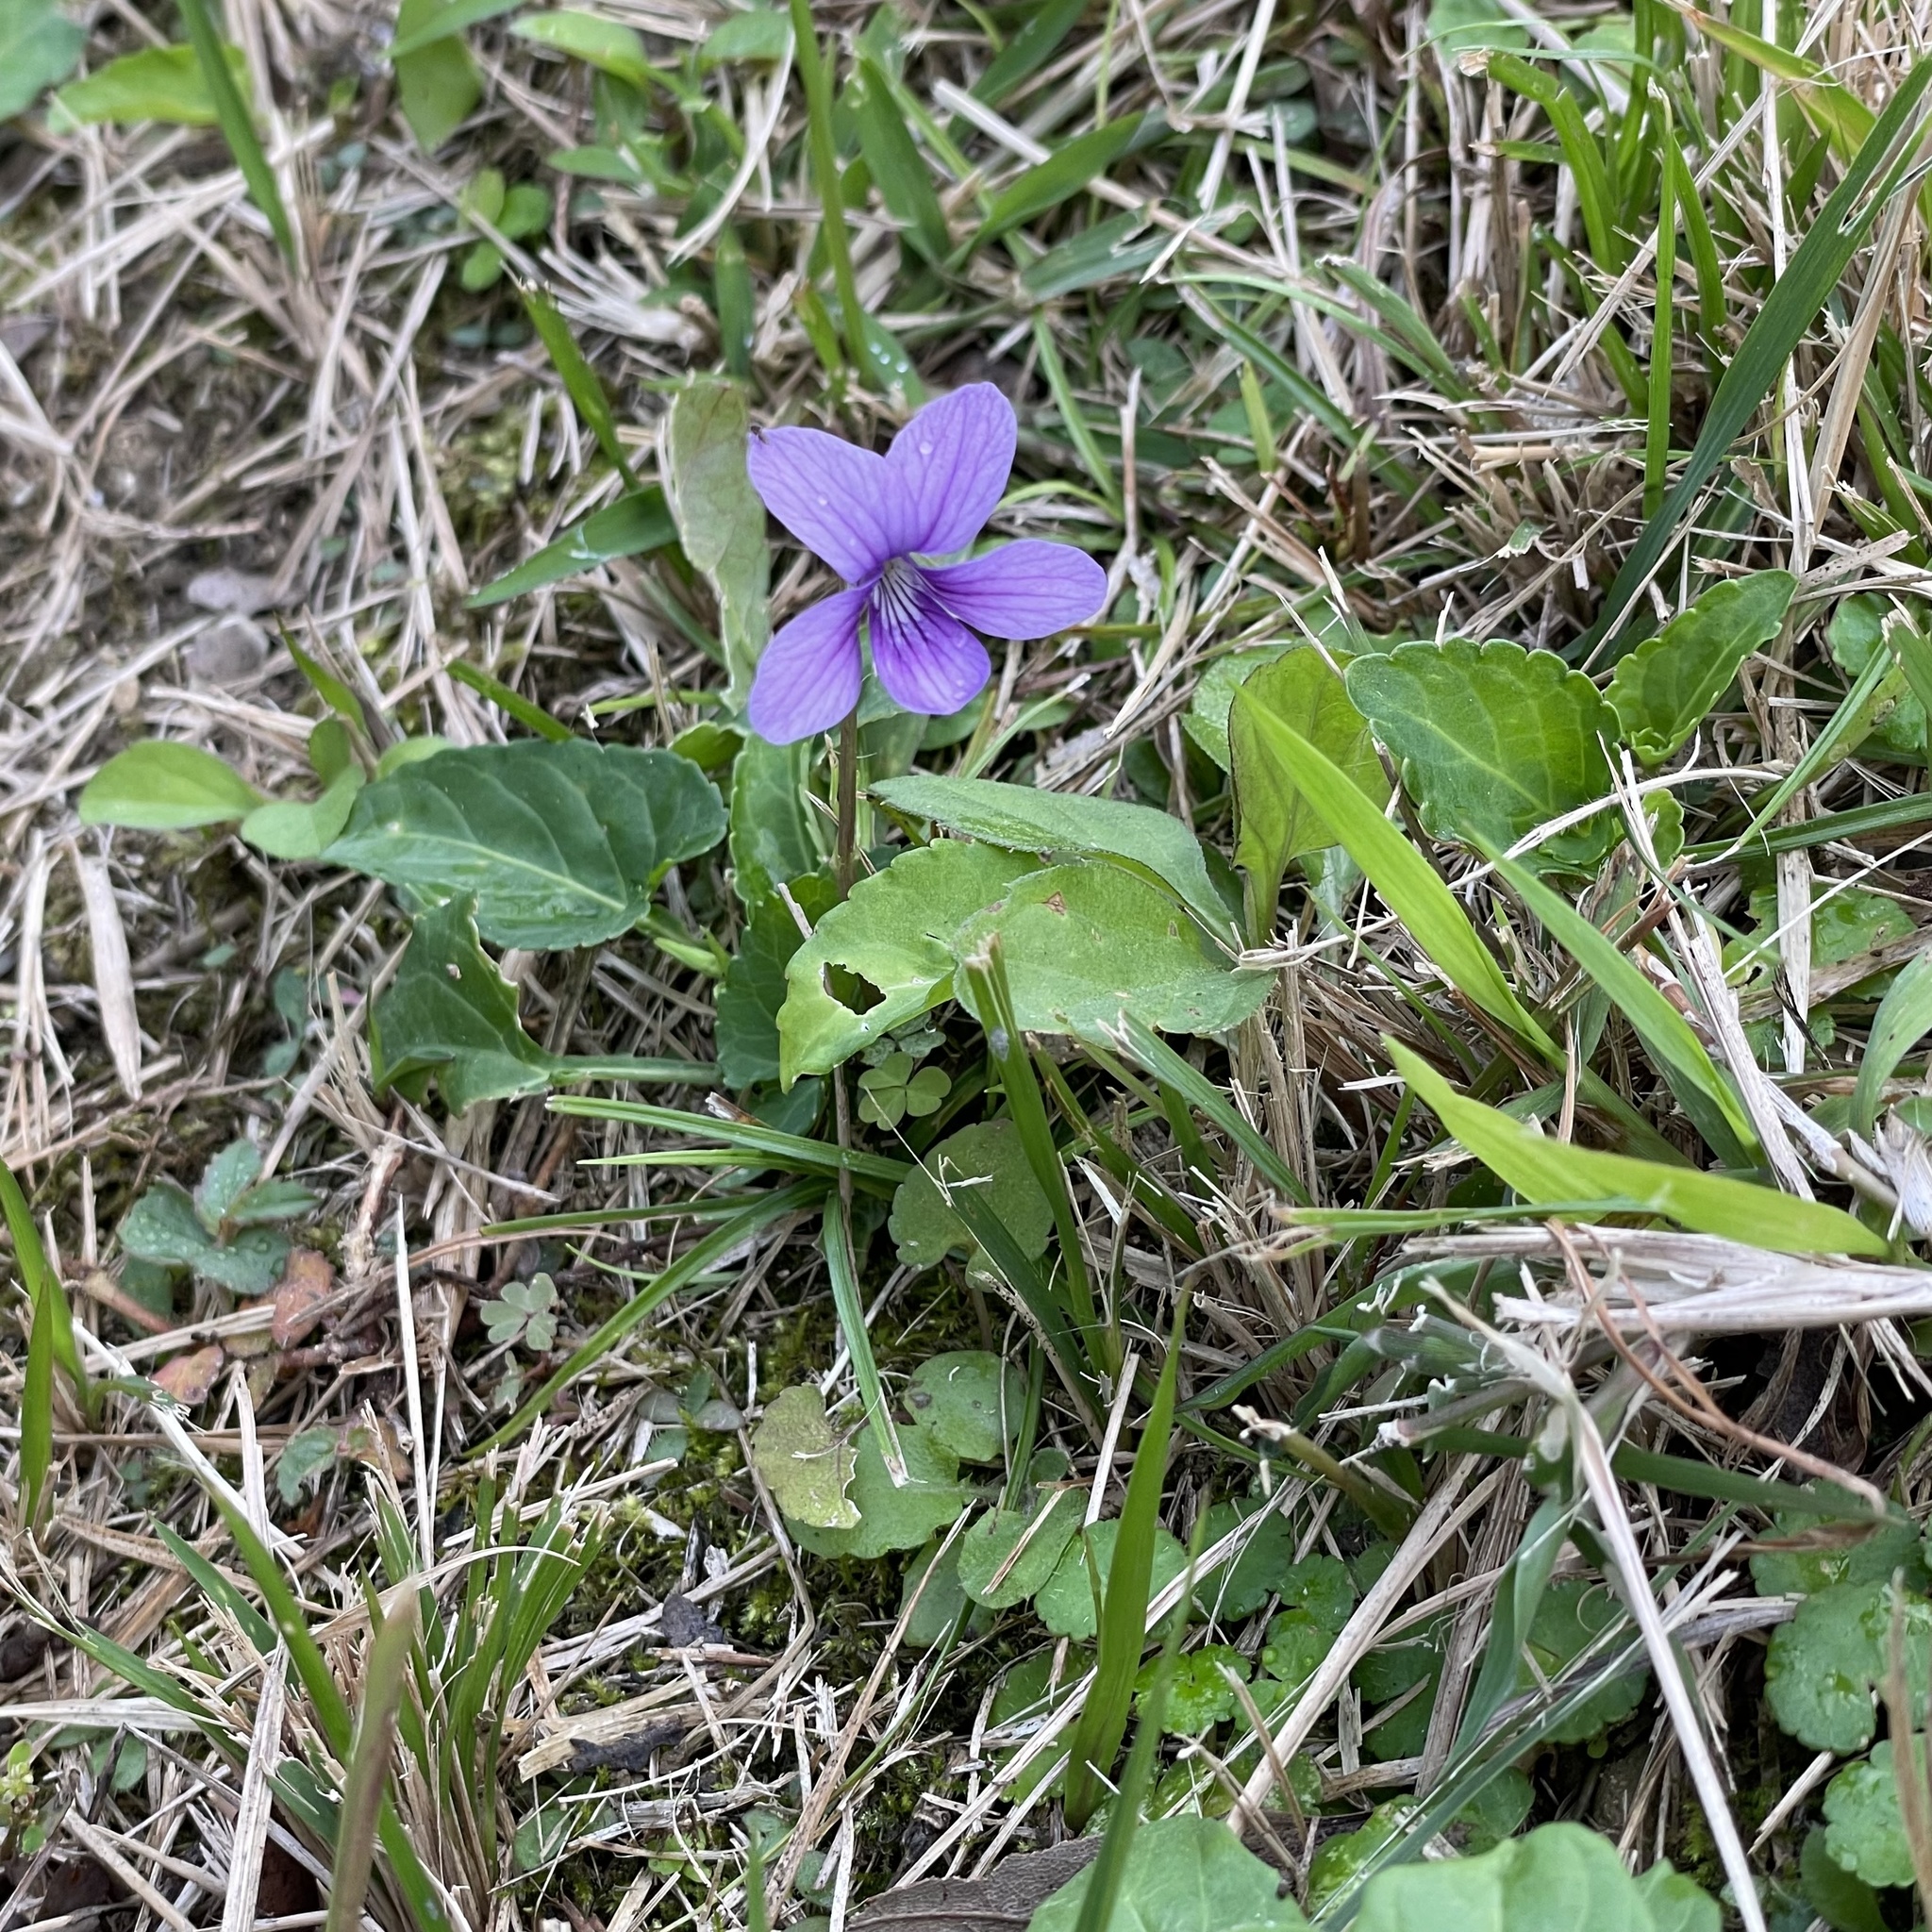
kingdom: Plantae
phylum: Tracheophyta
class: Magnoliopsida
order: Malpighiales
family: Violaceae
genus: Viola
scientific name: Viola philippica
